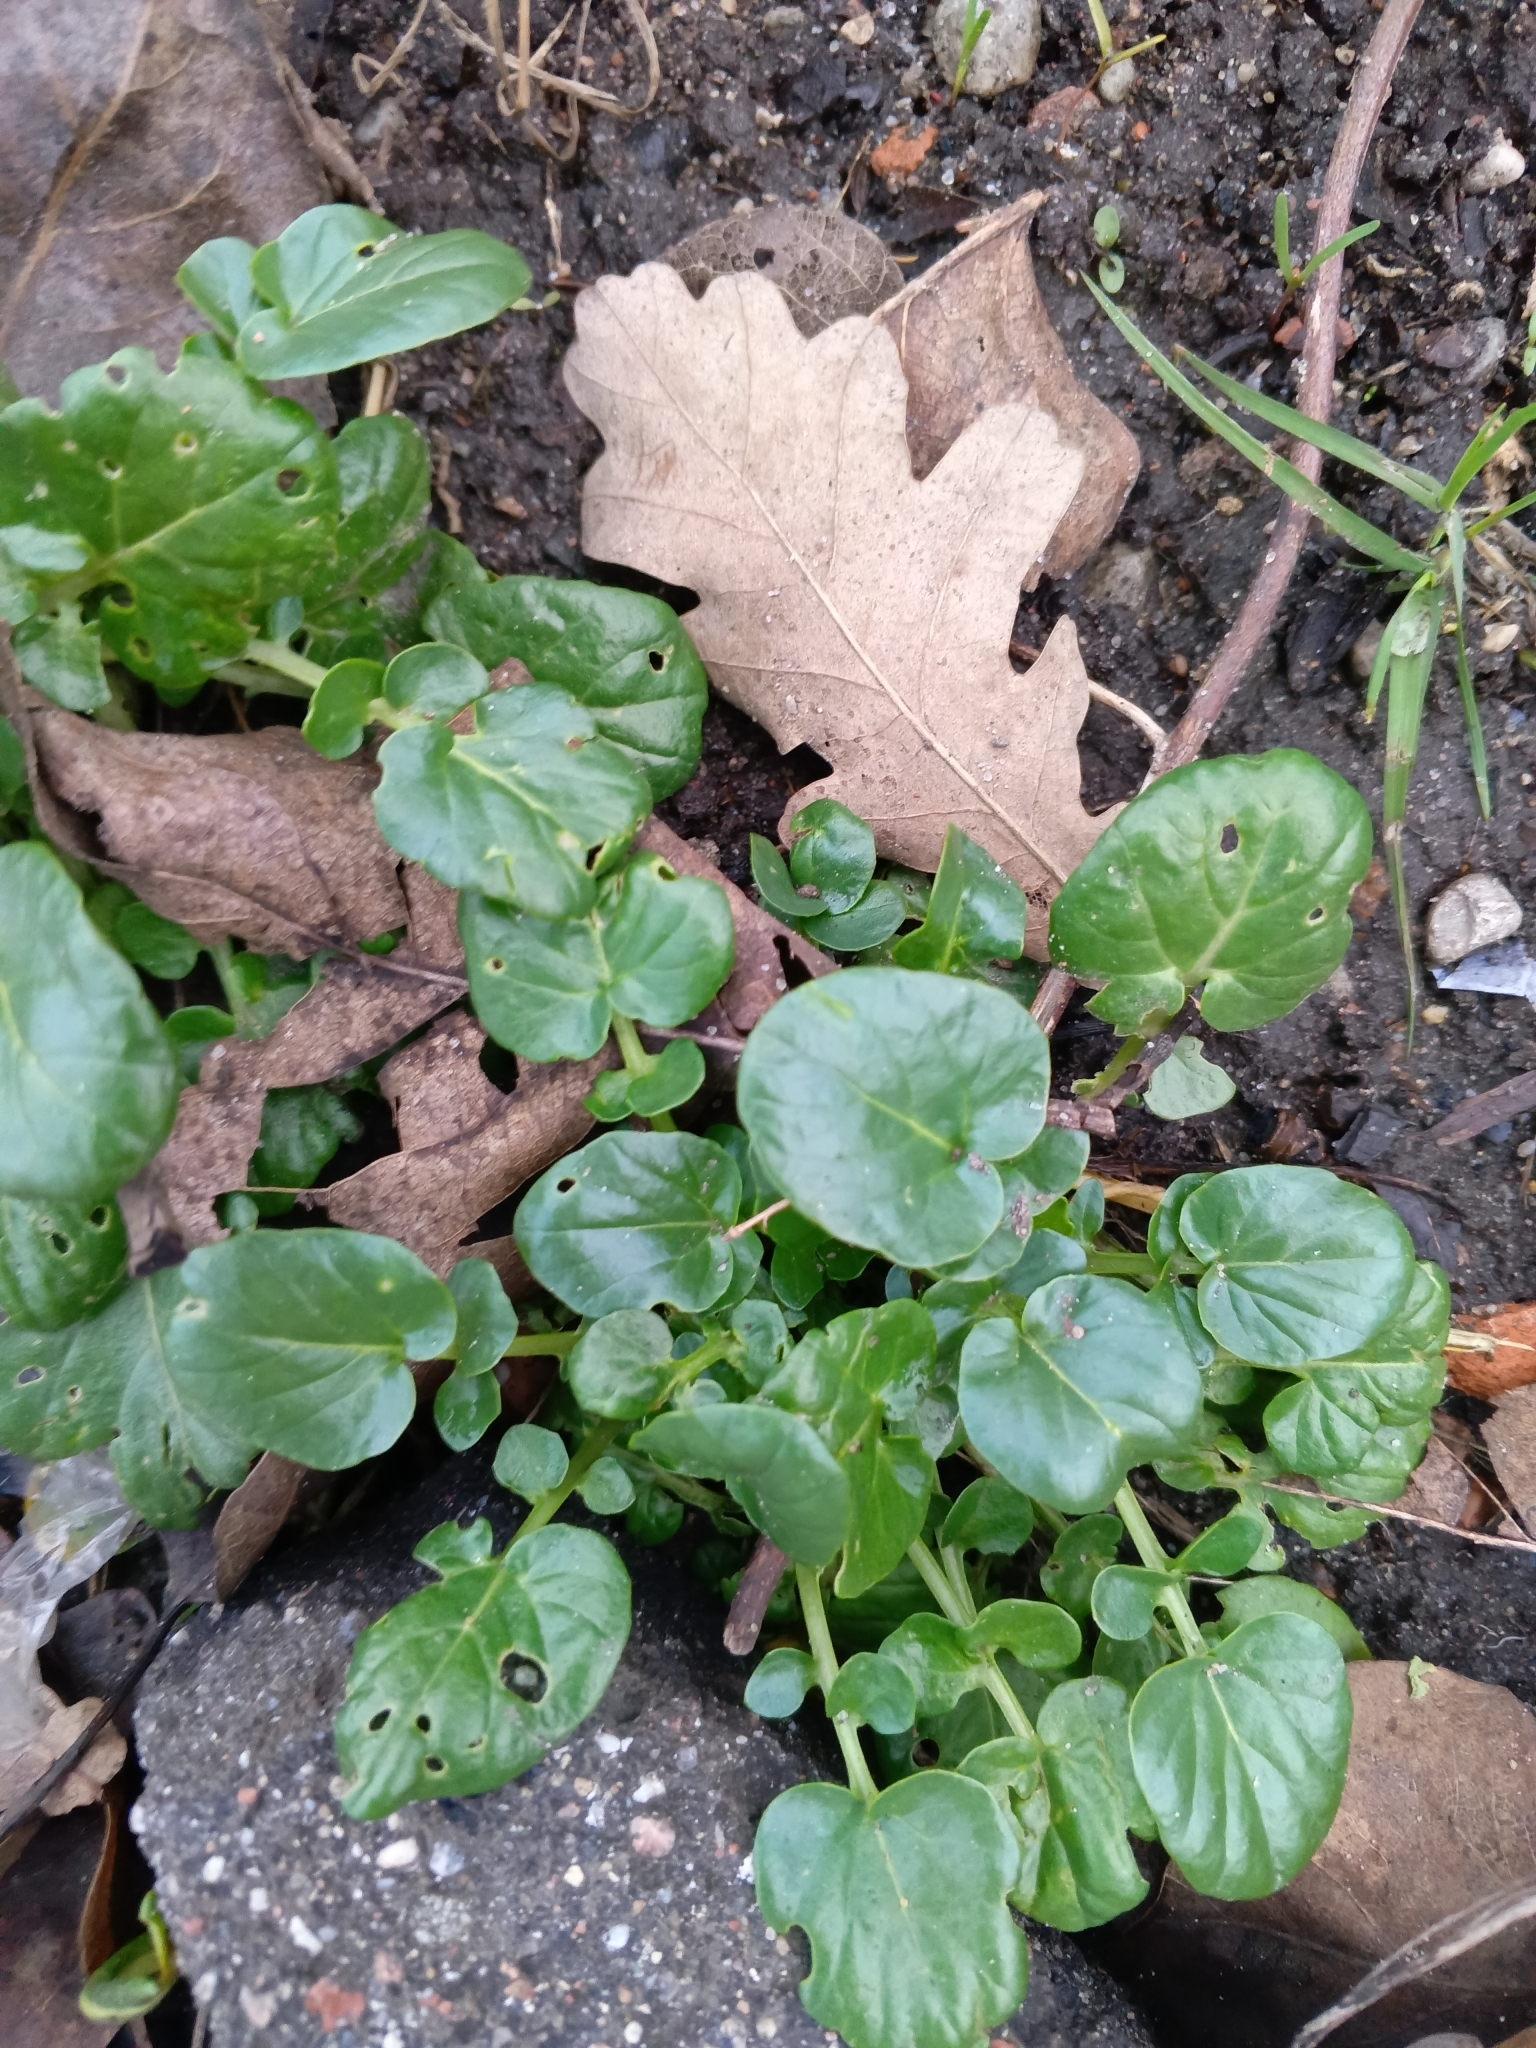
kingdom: Plantae
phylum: Tracheophyta
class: Magnoliopsida
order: Brassicales
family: Brassicaceae
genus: Barbarea
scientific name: Barbarea vulgaris
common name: Cressy-greens
